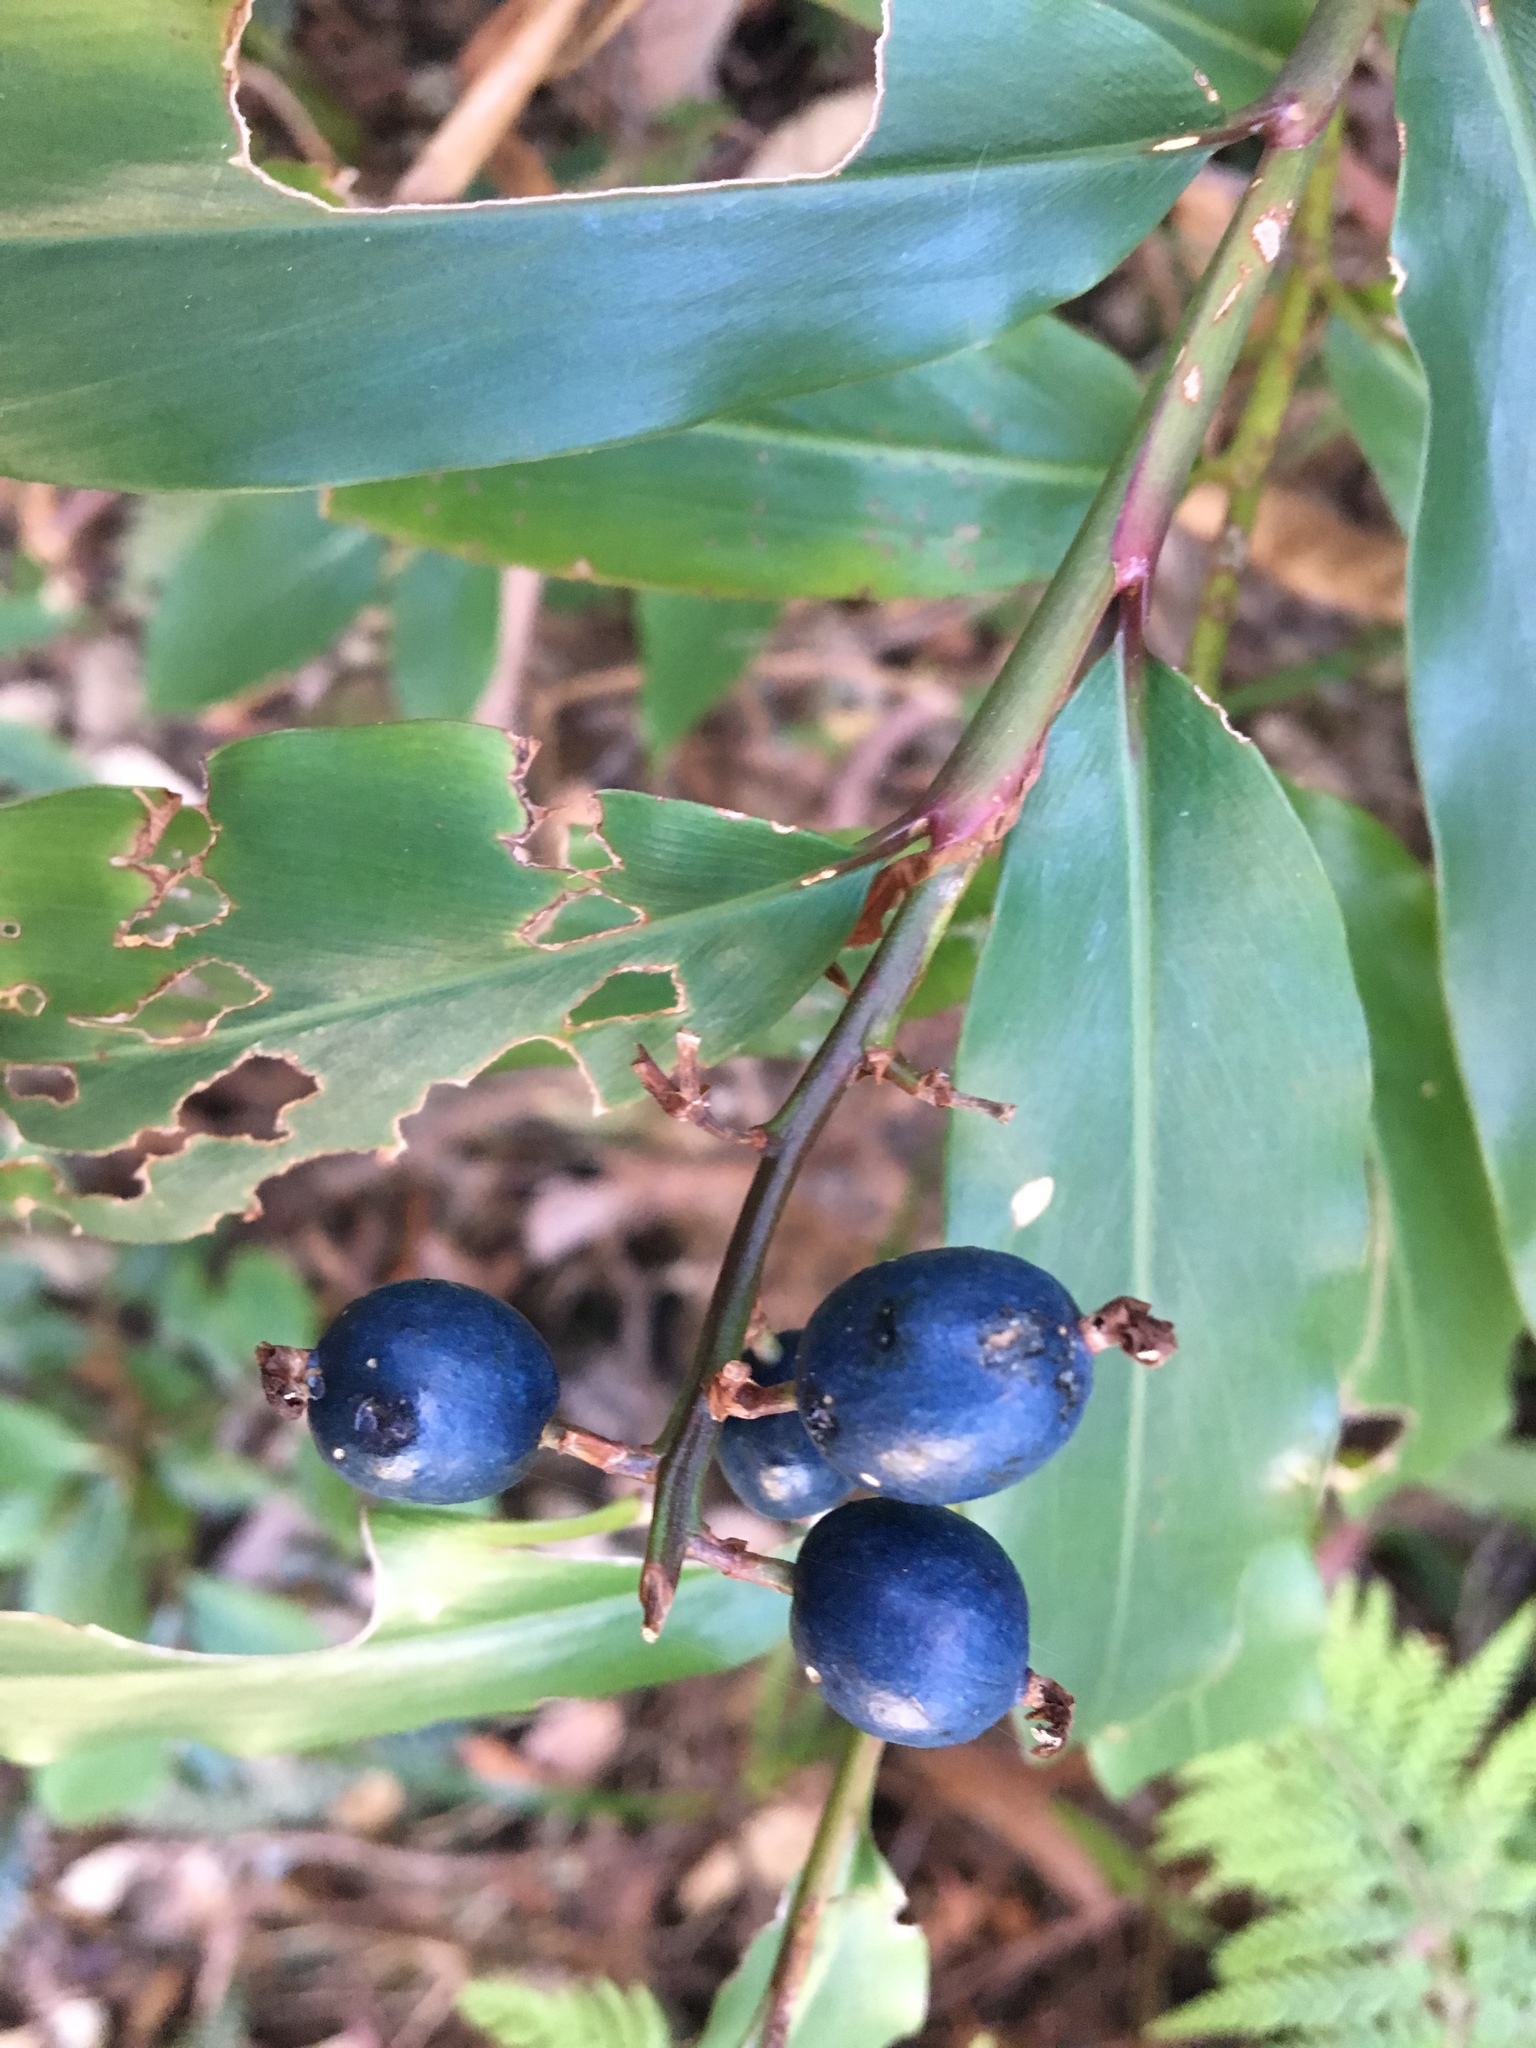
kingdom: Plantae
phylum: Tracheophyta
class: Liliopsida
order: Zingiberales
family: Zingiberaceae
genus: Alpinia
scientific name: Alpinia arundelliana
